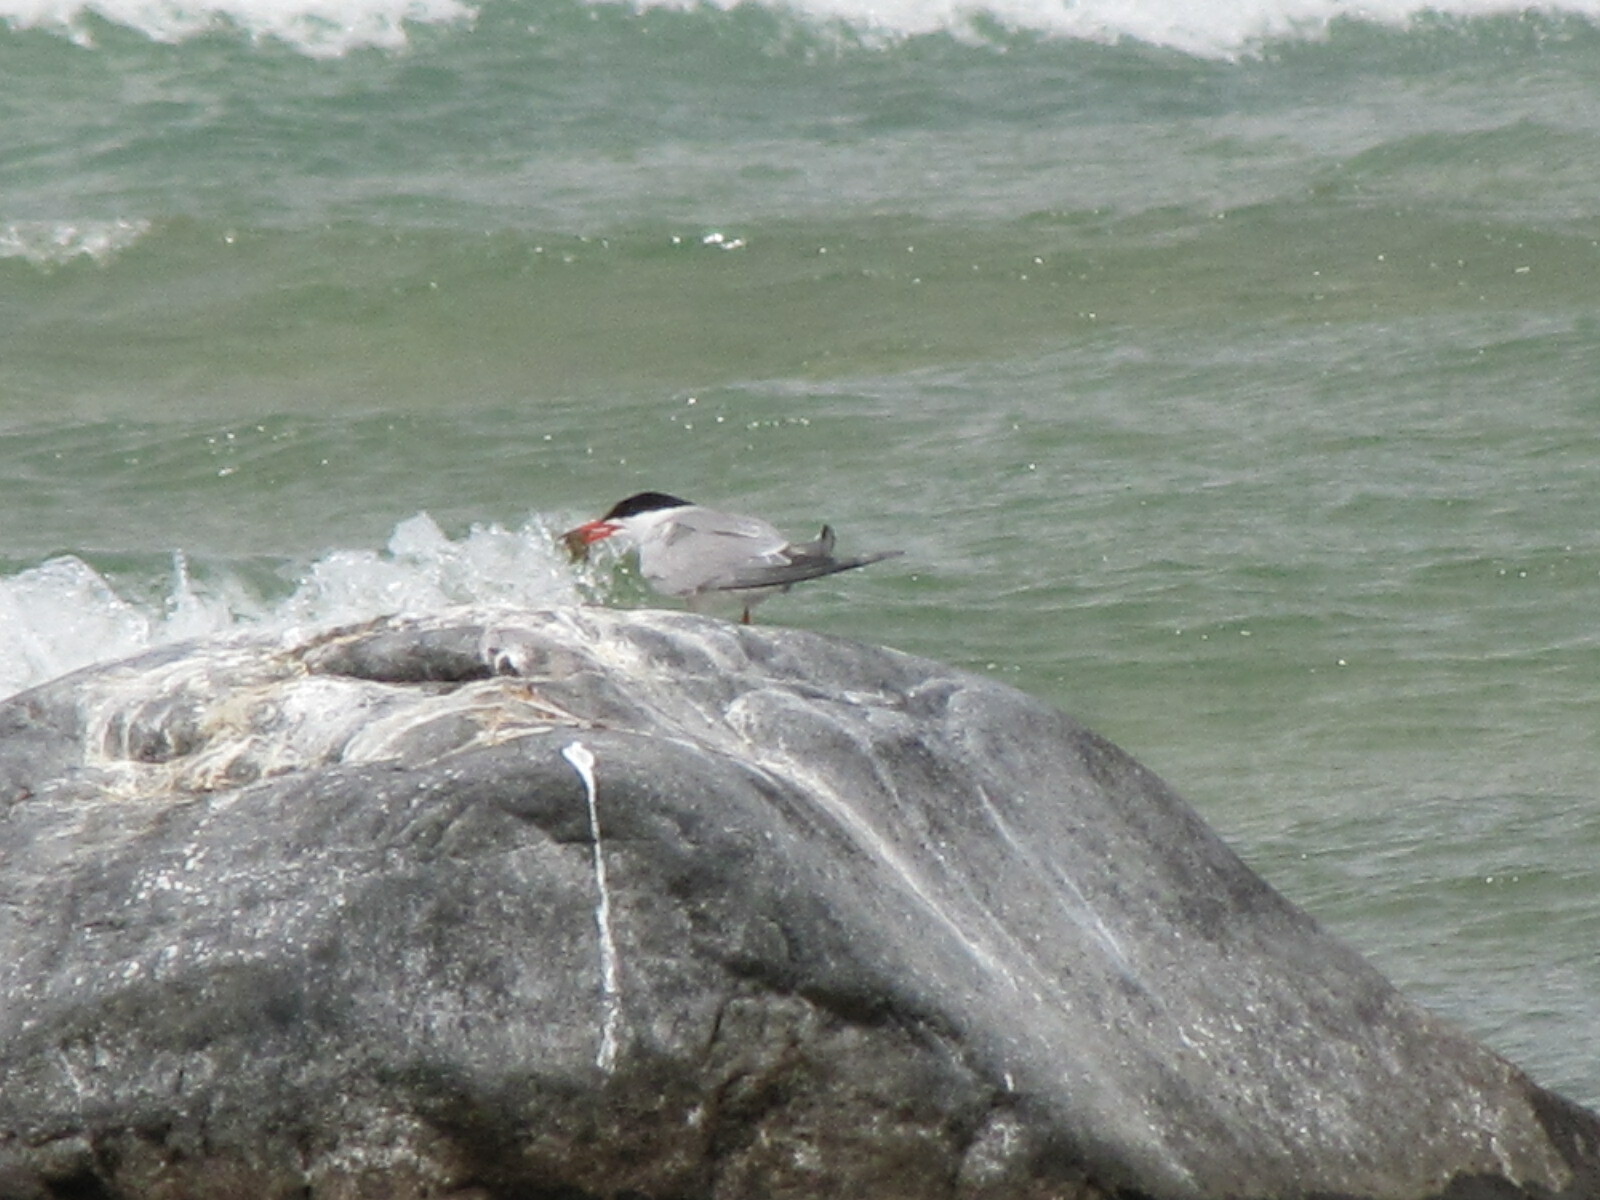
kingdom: Animalia
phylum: Chordata
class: Aves
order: Charadriiformes
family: Laridae
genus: Sterna
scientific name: Sterna hirundo
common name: Common tern
